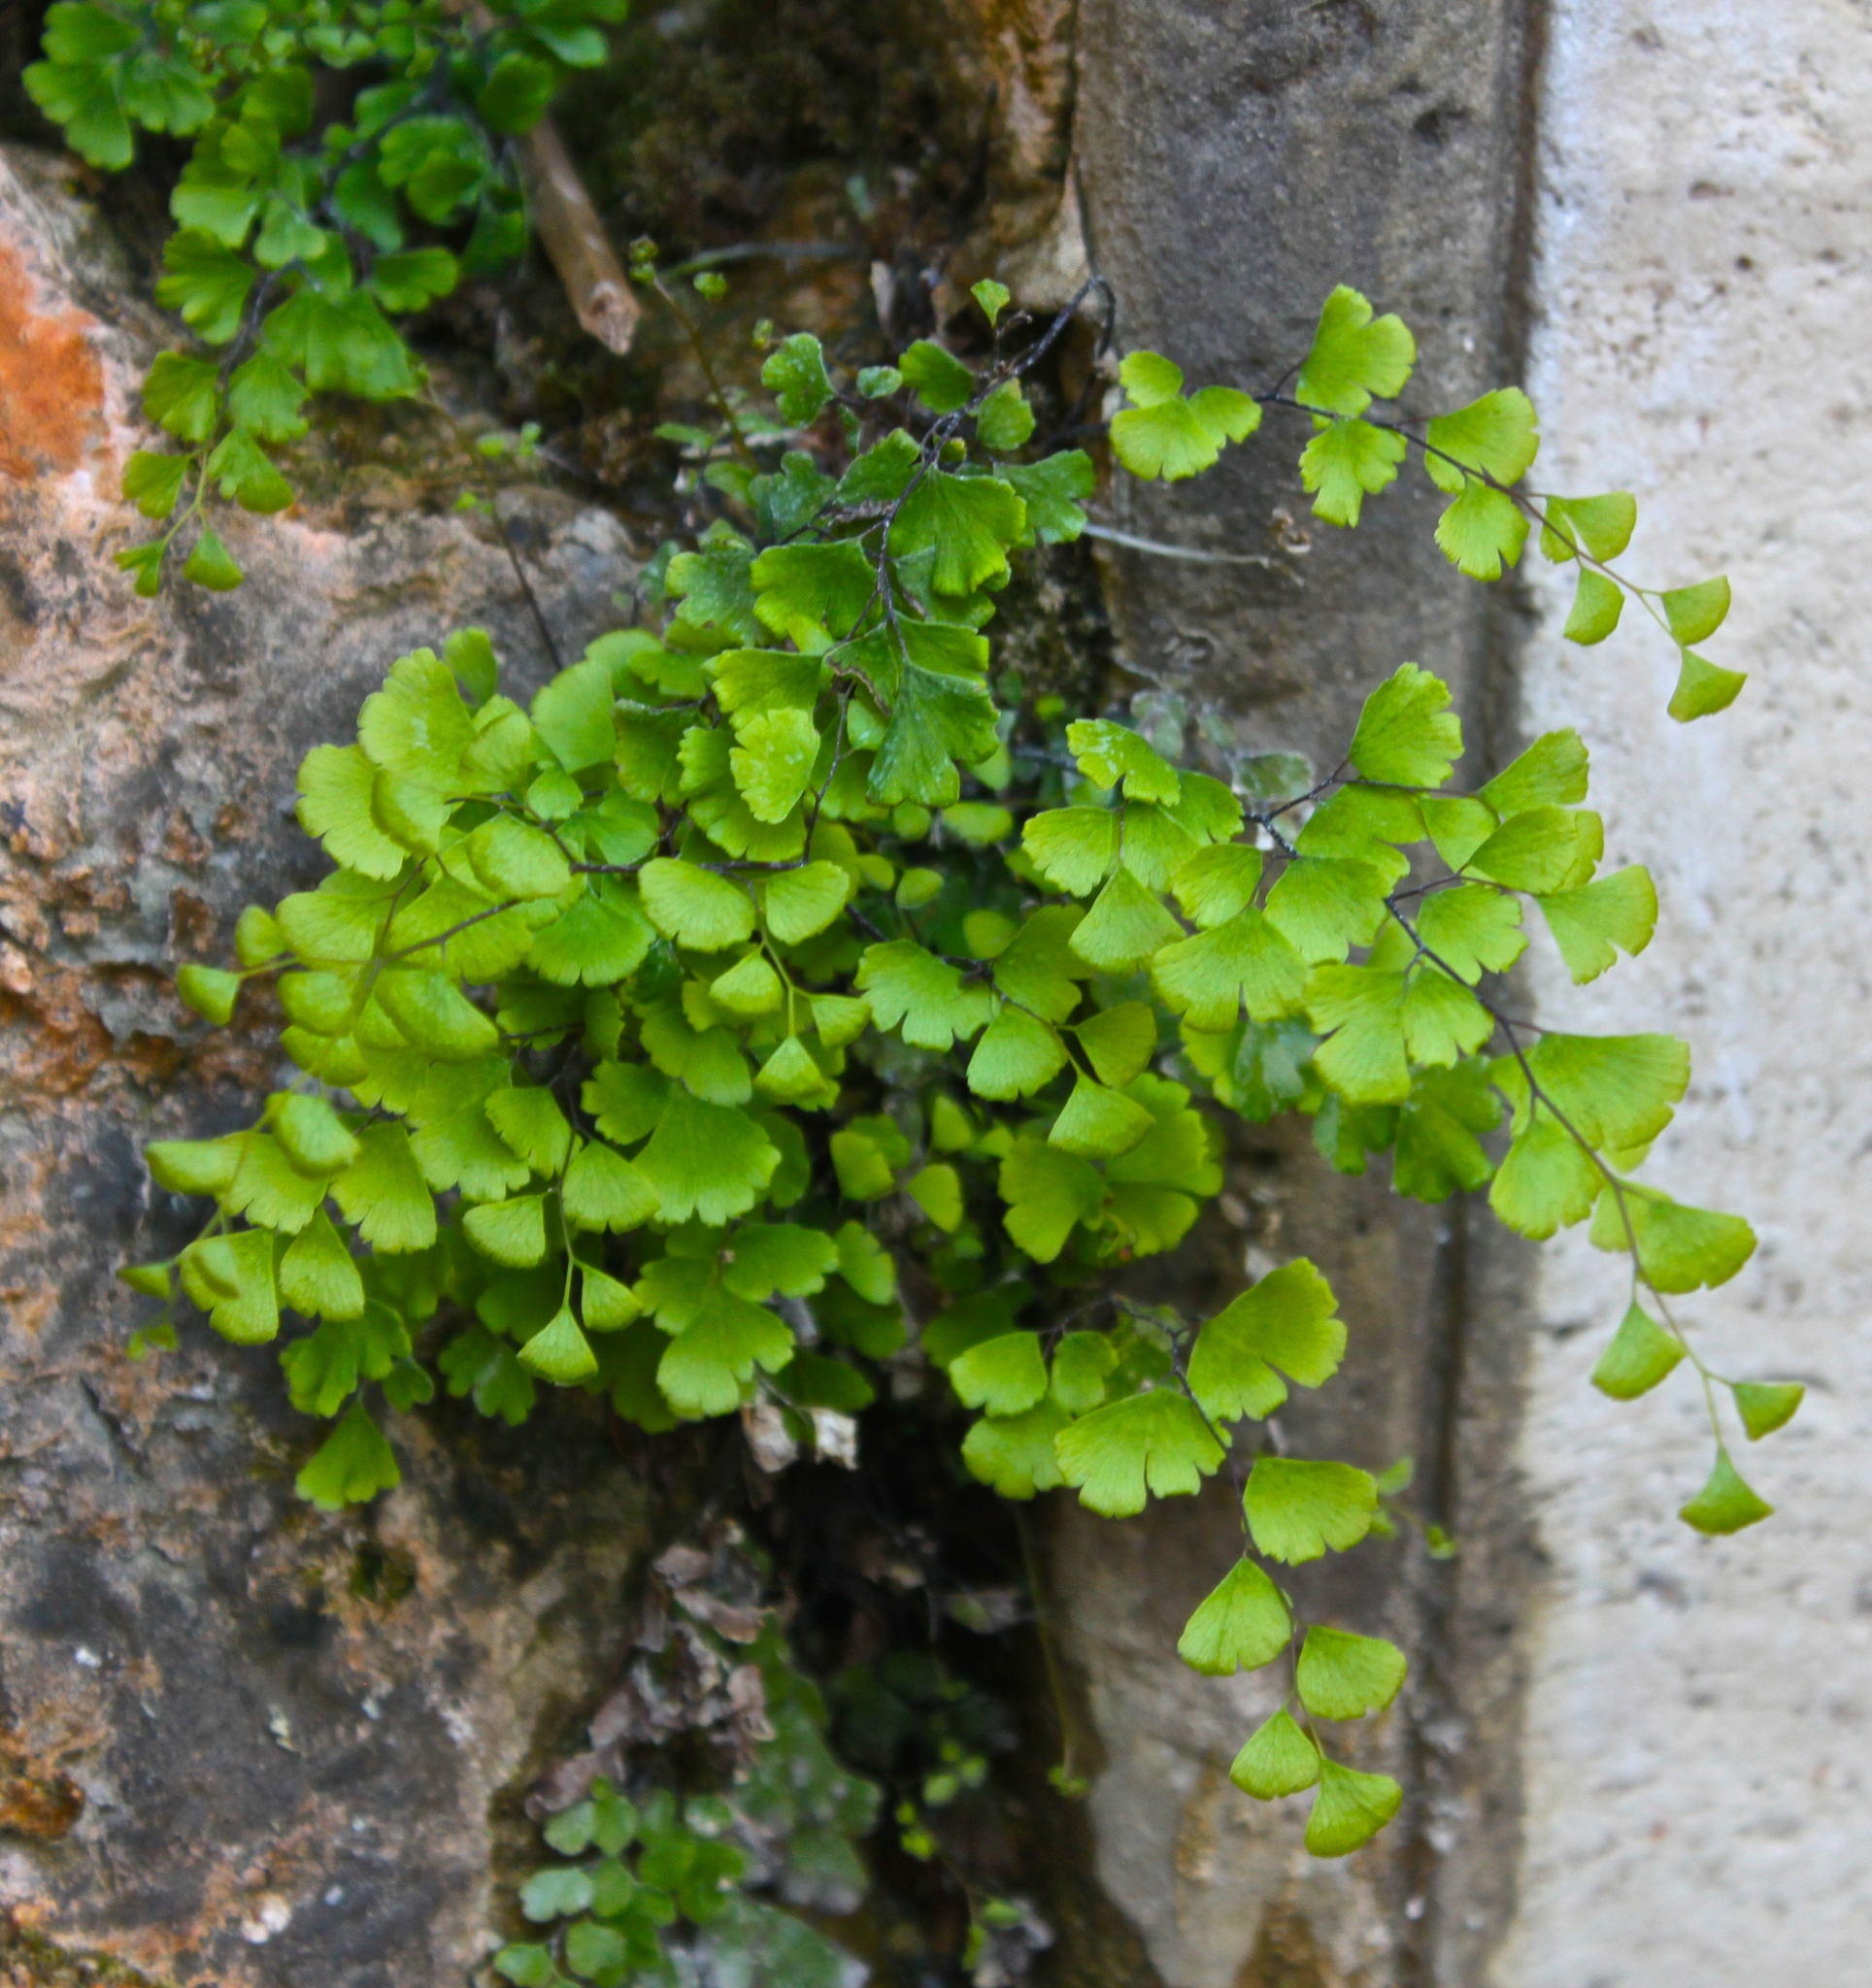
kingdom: Plantae
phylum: Tracheophyta
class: Polypodiopsida
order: Polypodiales
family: Pteridaceae
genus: Adiantum
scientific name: Adiantum capillus-veneris
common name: Maidenhair fern
